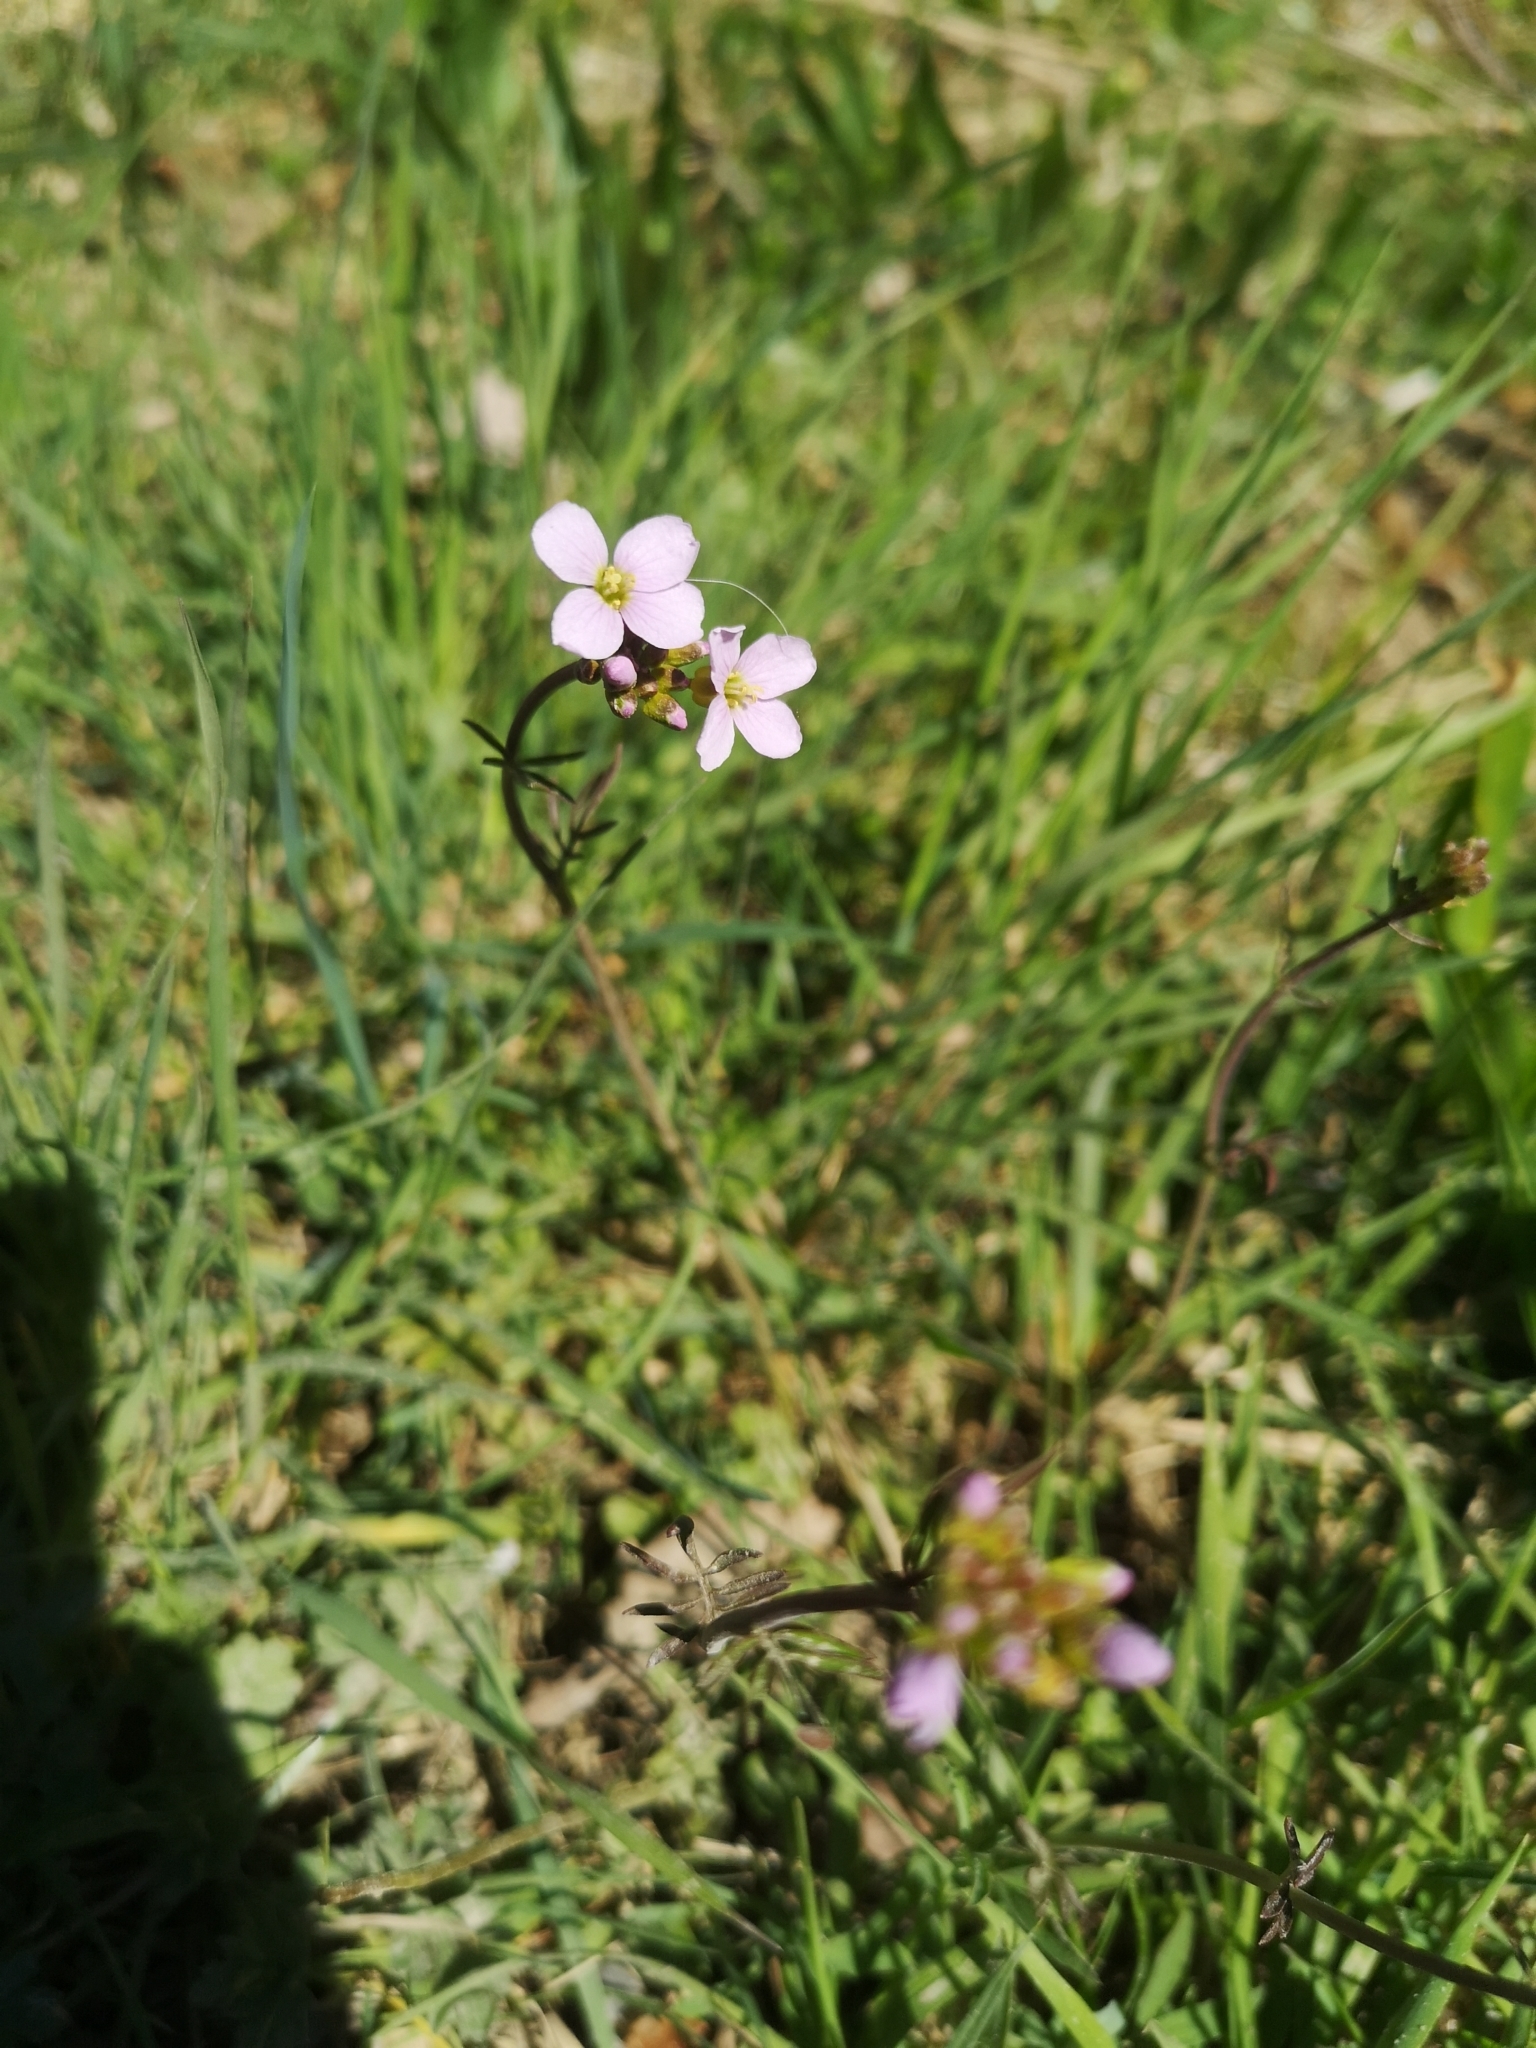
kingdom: Plantae
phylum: Tracheophyta
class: Magnoliopsida
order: Brassicales
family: Brassicaceae
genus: Cardamine
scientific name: Cardamine pratensis
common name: Cuckoo flower
